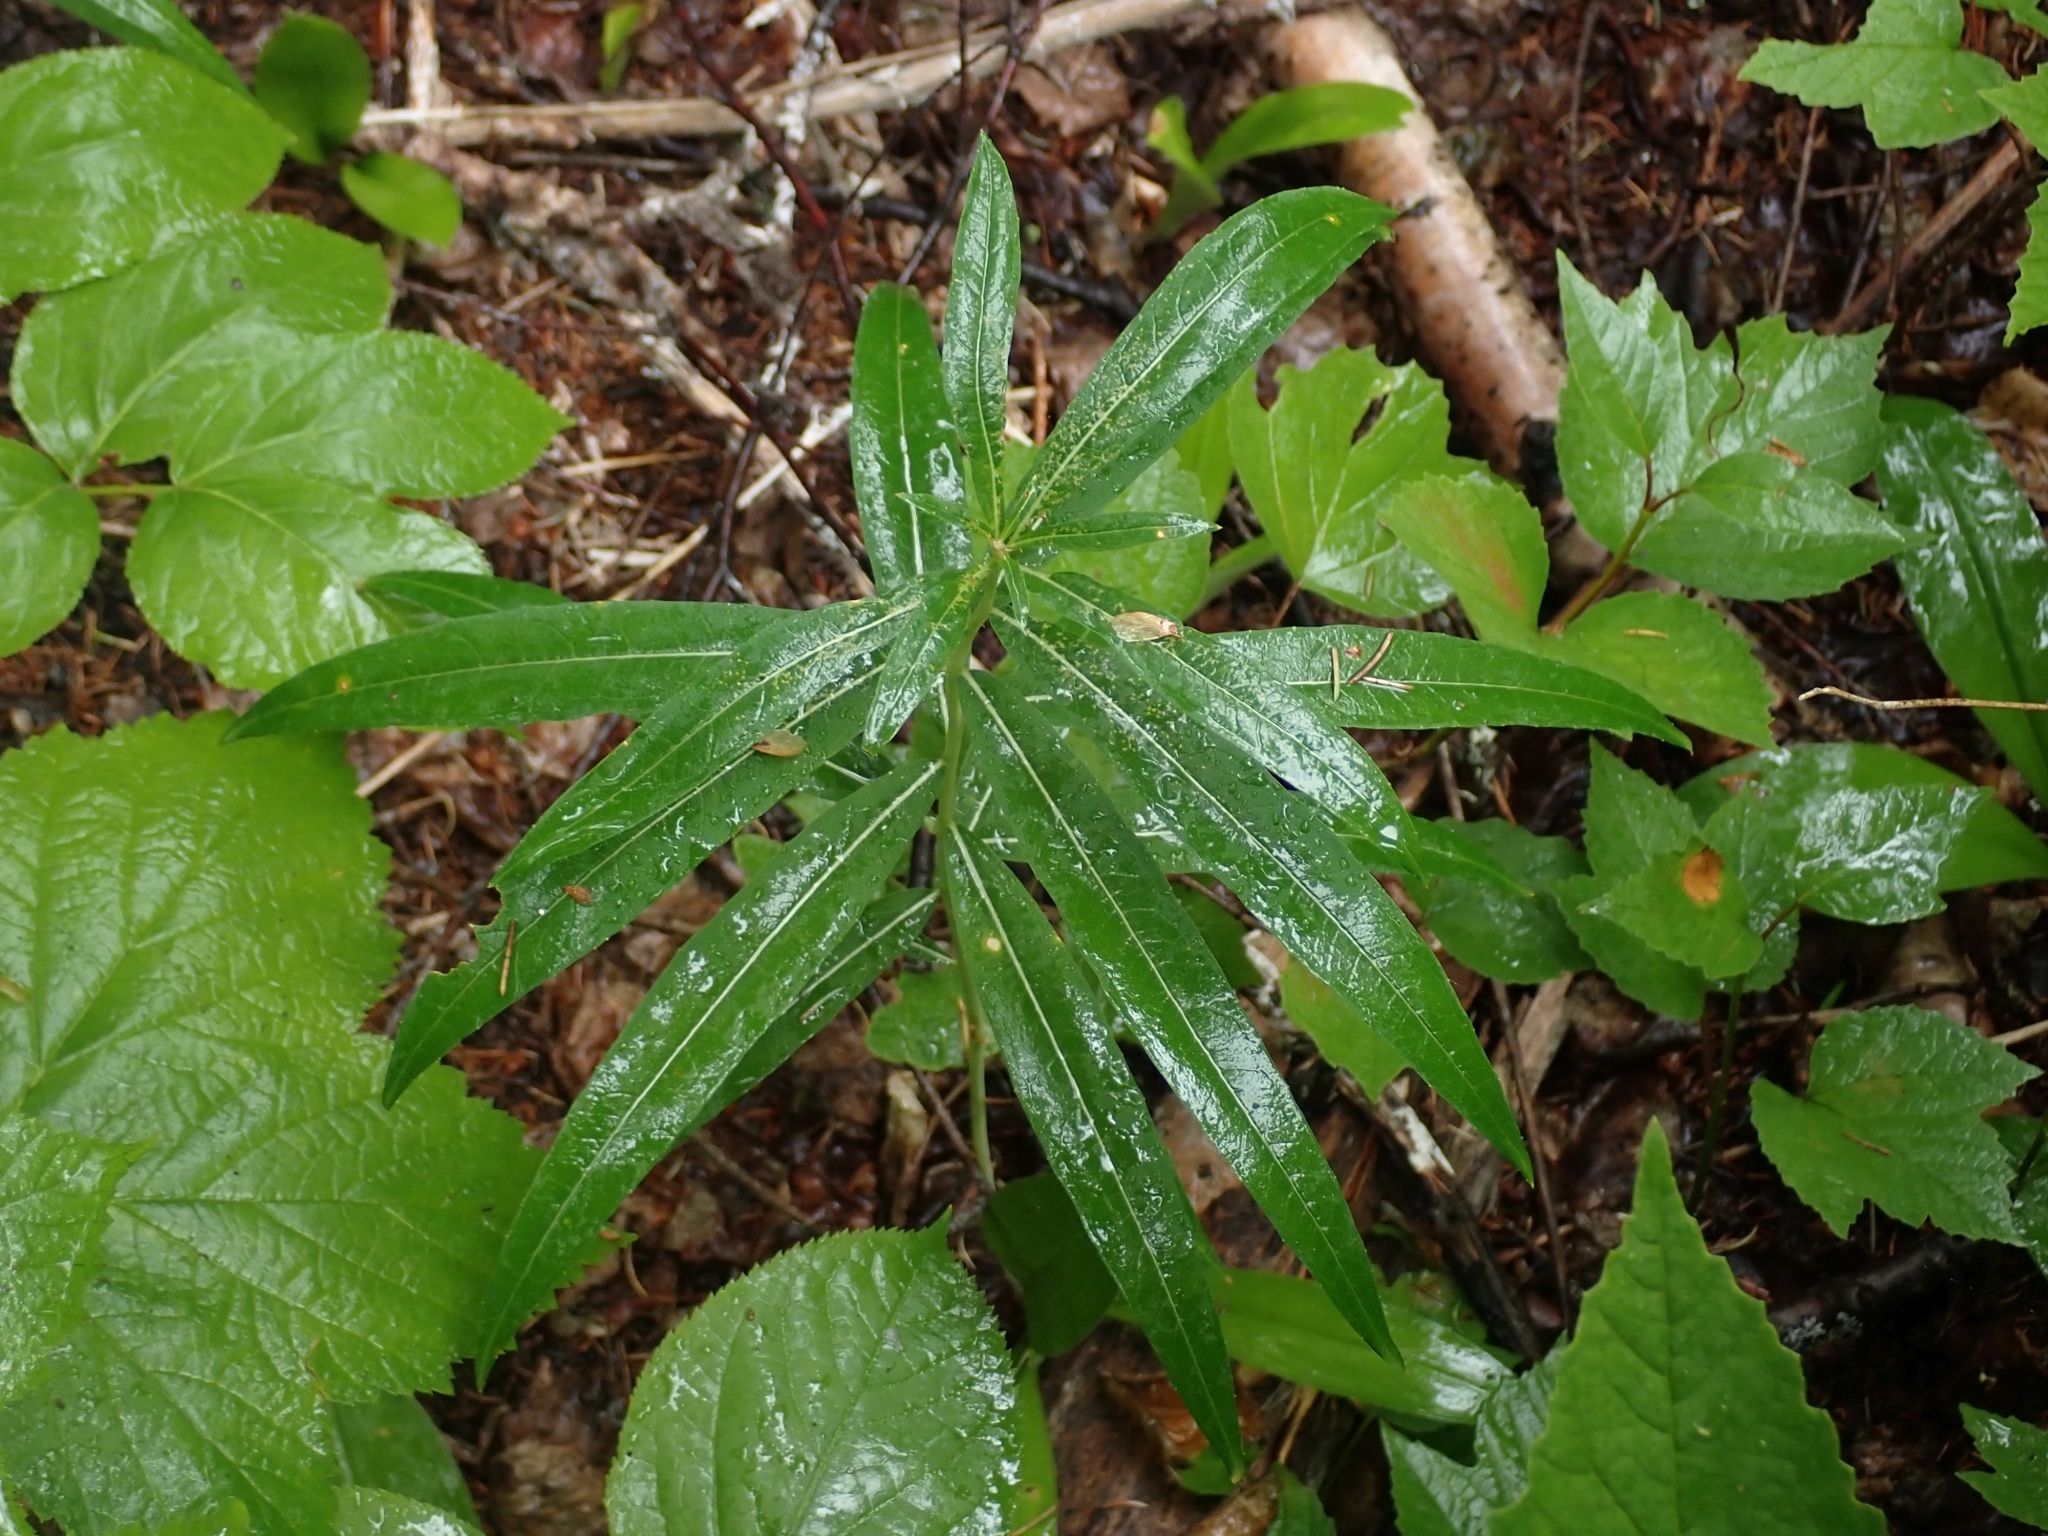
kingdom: Plantae
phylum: Tracheophyta
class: Magnoliopsida
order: Myrtales
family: Onagraceae
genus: Chamaenerion
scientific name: Chamaenerion angustifolium
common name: Fireweed
